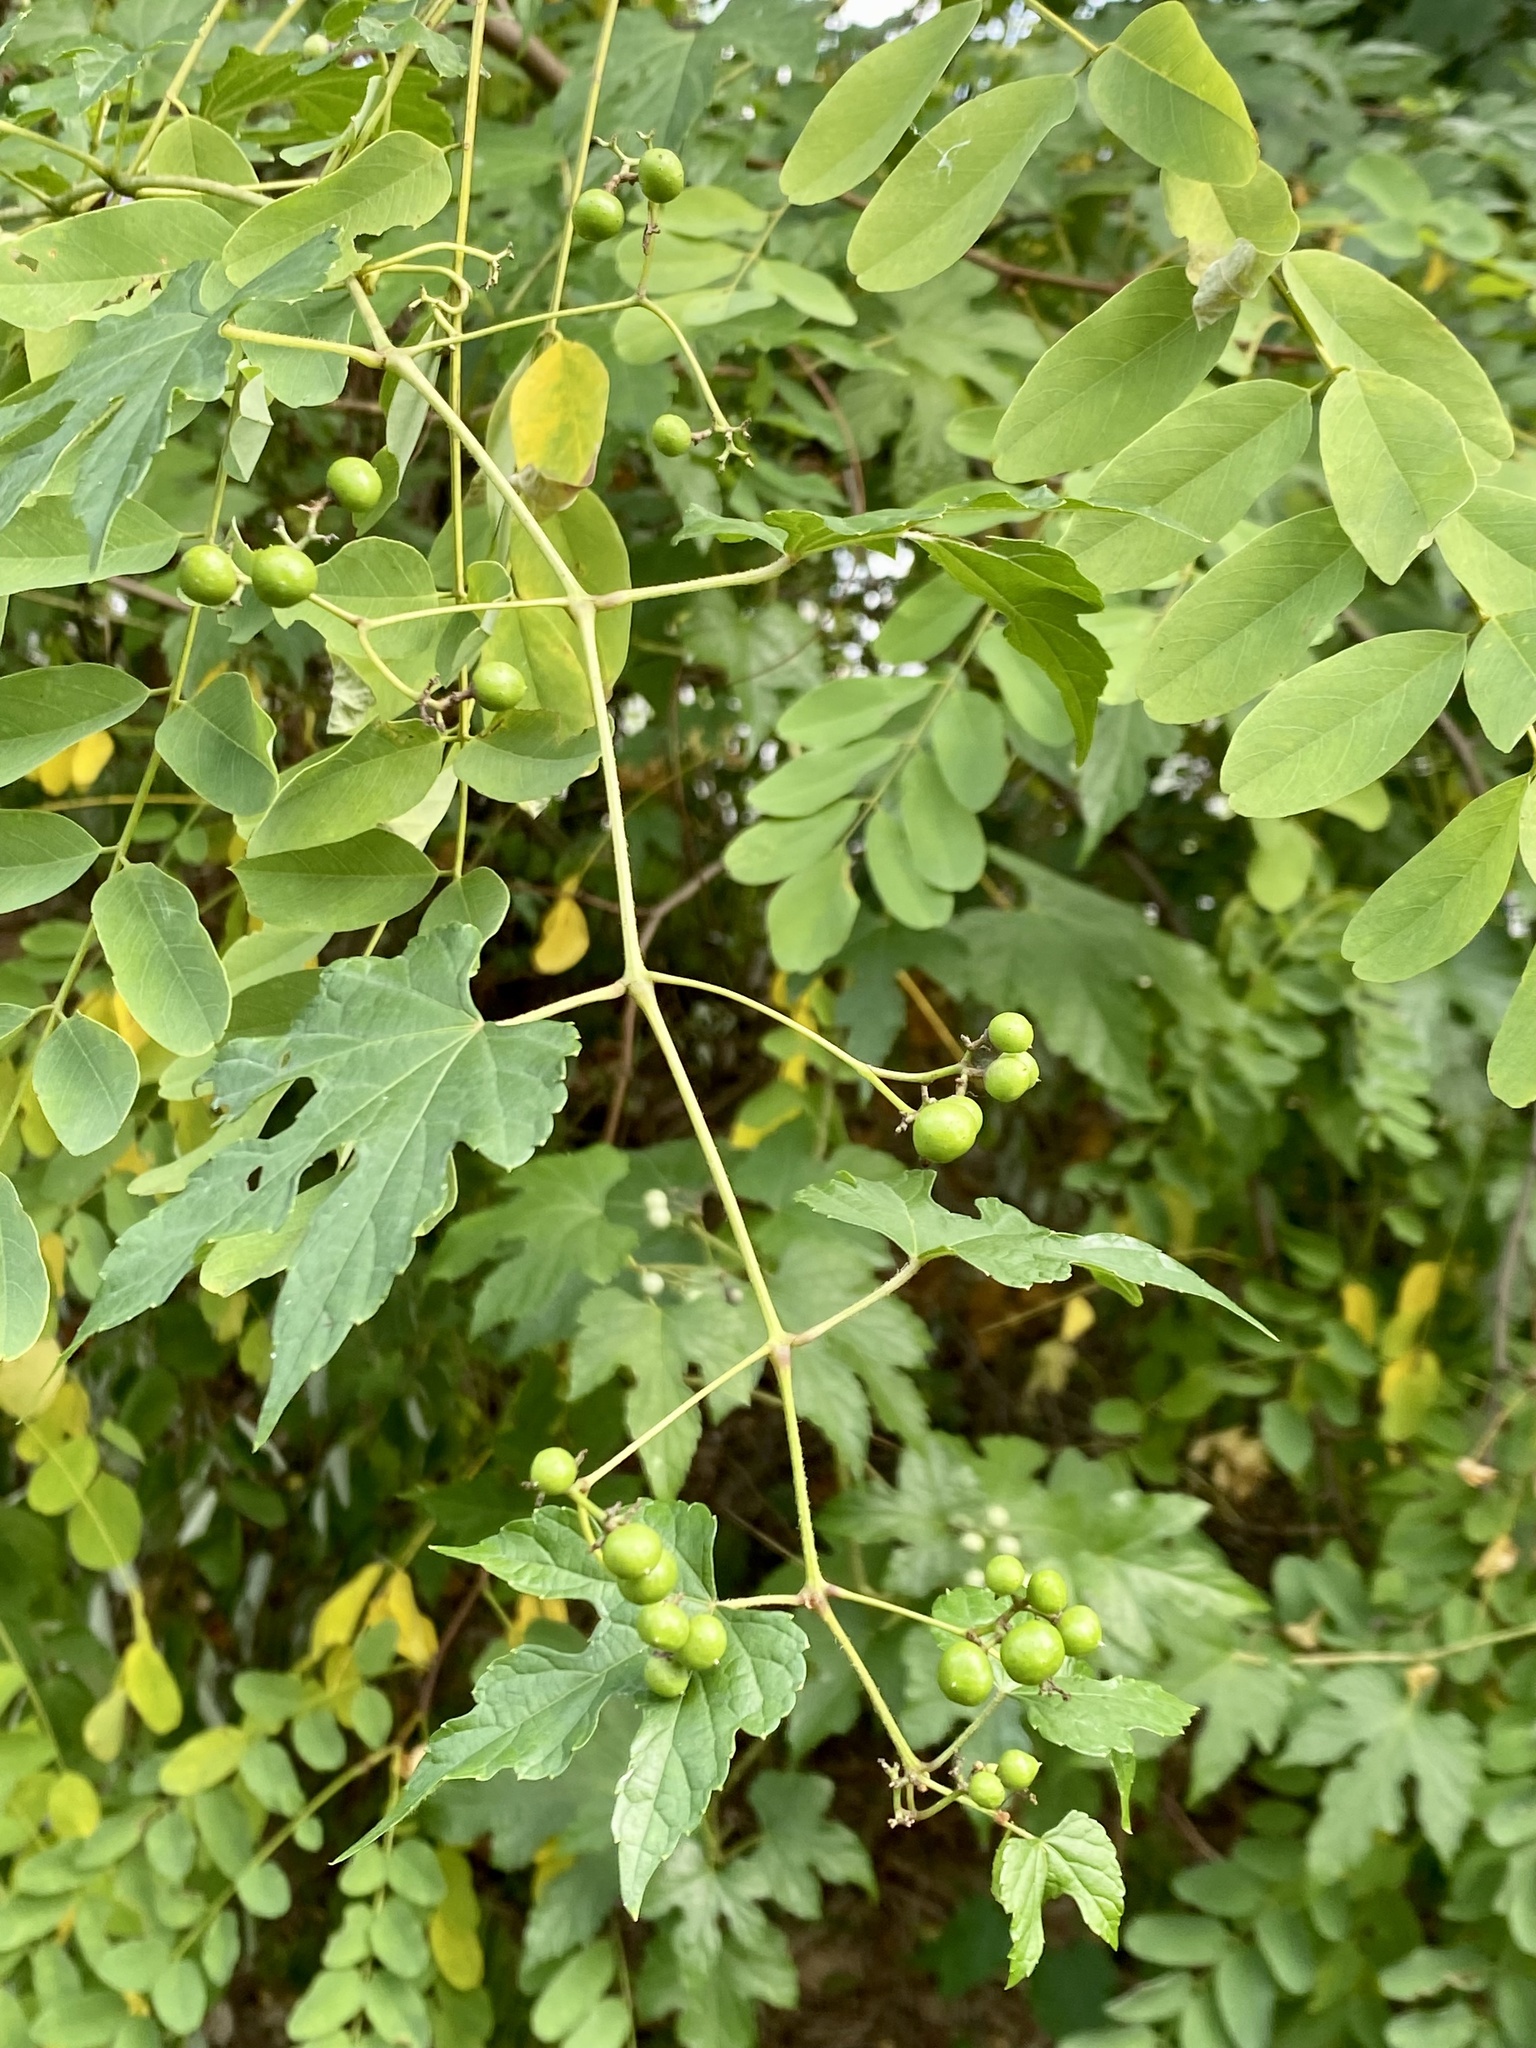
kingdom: Plantae
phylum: Tracheophyta
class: Magnoliopsida
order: Vitales
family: Vitaceae
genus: Ampelopsis
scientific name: Ampelopsis glandulosa
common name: Amur peppervine
